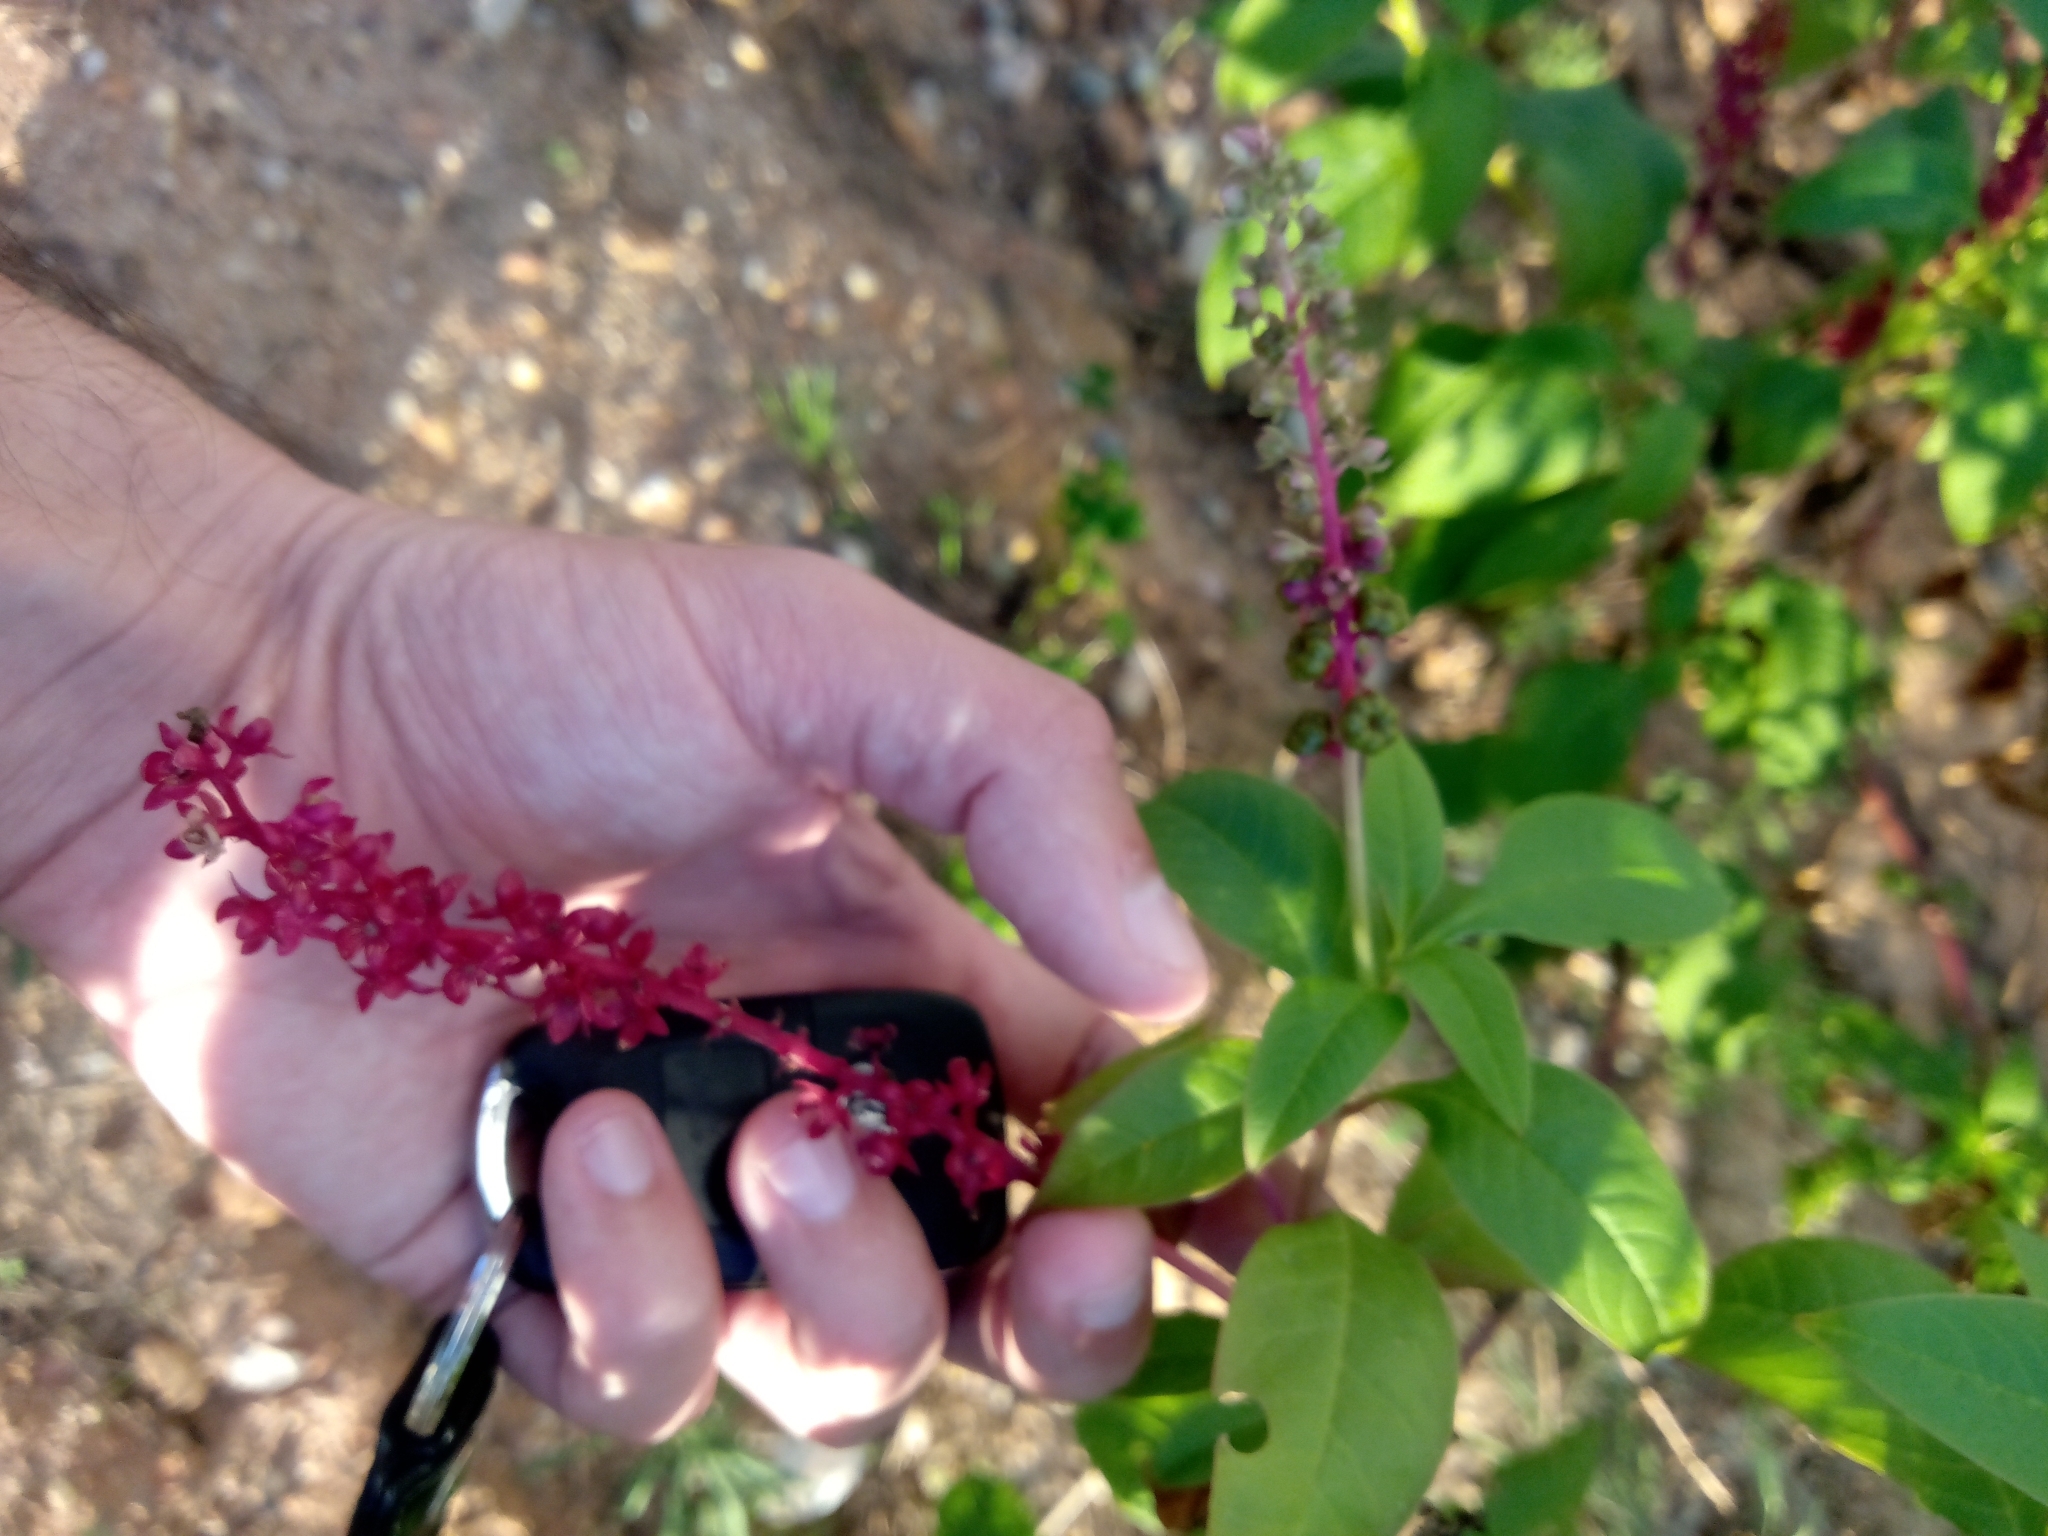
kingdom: Plantae
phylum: Tracheophyta
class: Magnoliopsida
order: Caryophyllales
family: Phytolaccaceae
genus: Phytolacca
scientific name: Phytolacca heterotepala
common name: Mexican pokeweed
